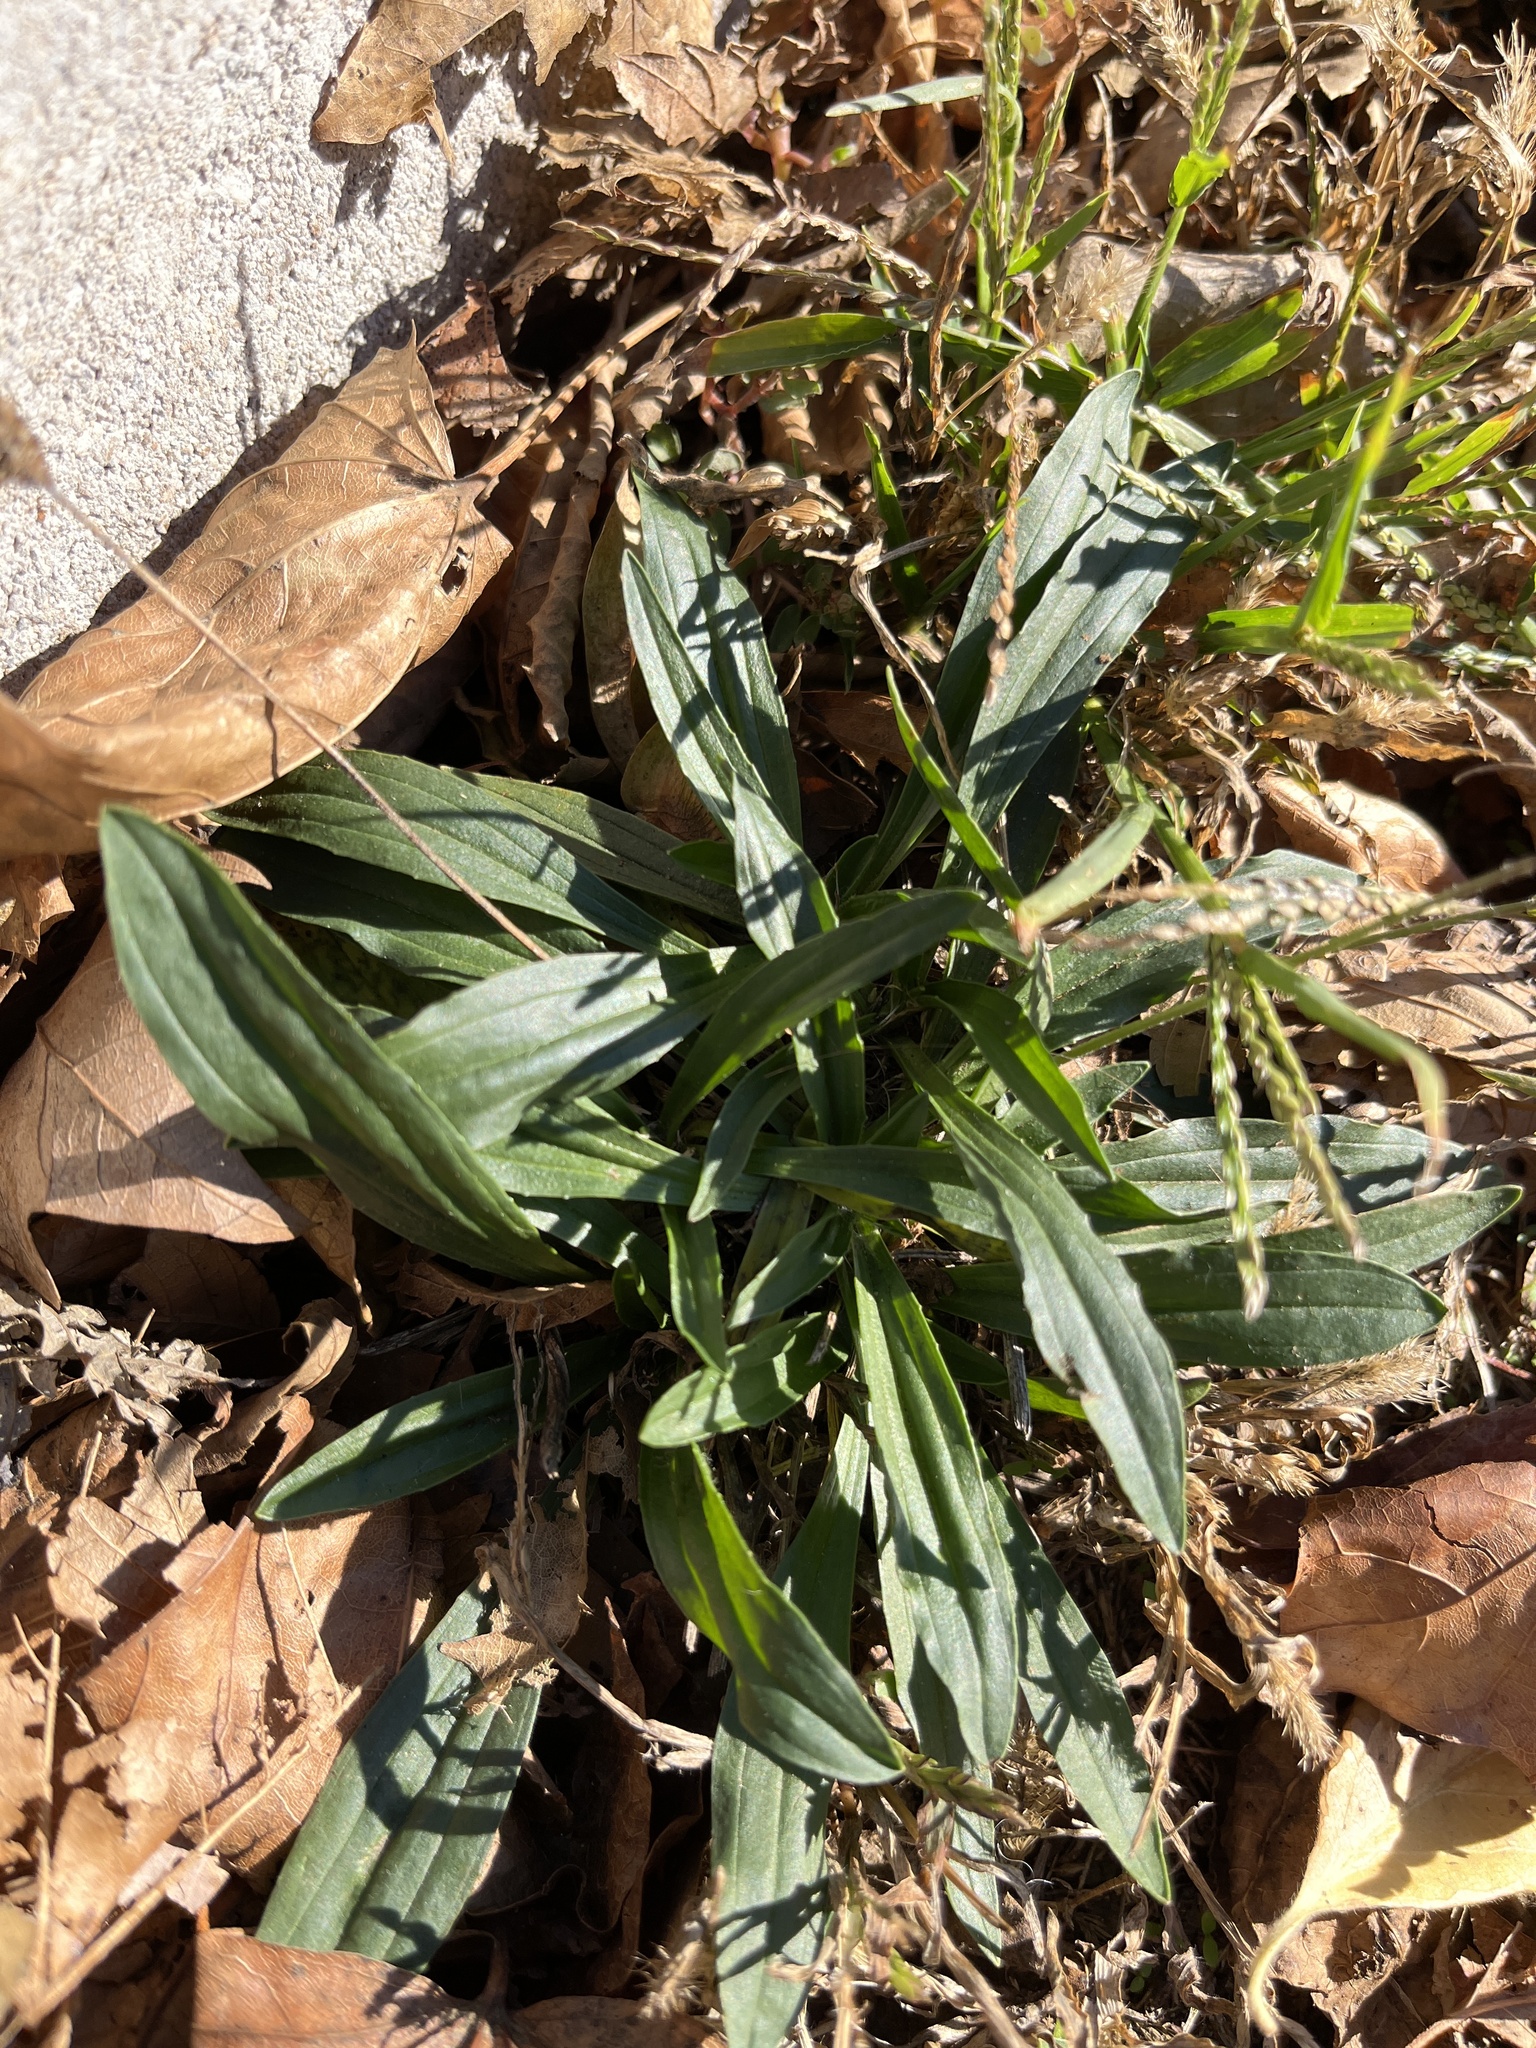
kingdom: Plantae
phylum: Tracheophyta
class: Magnoliopsida
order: Lamiales
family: Plantaginaceae
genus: Plantago
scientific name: Plantago lanceolata
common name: Ribwort plantain
